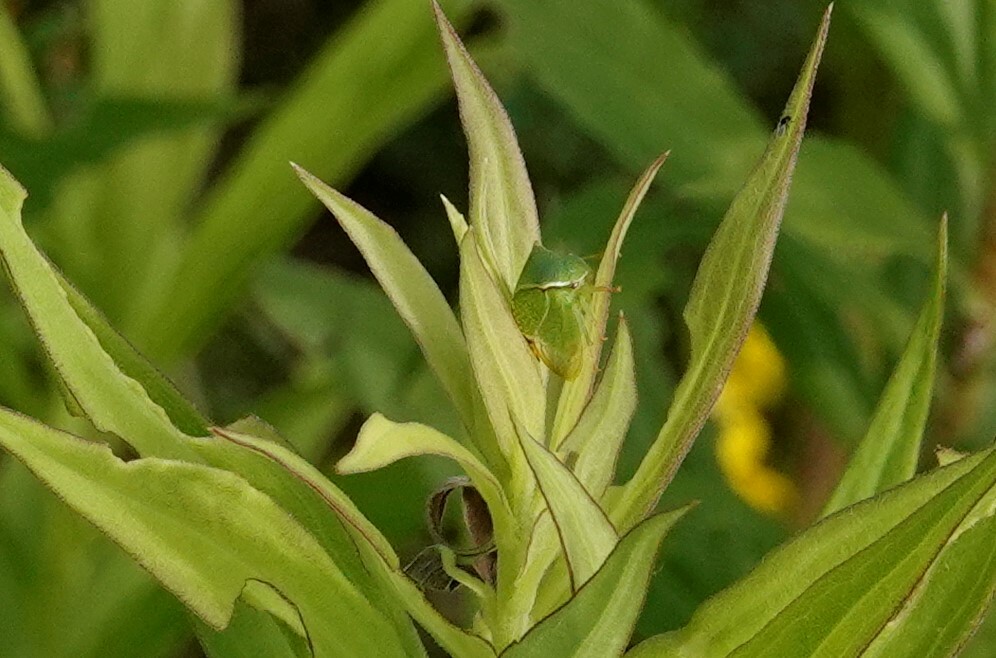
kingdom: Animalia
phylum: Arthropoda
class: Insecta
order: Hemiptera
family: Membracidae
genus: Stictocephala
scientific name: Stictocephala bisonia
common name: American buffalo treehopper
